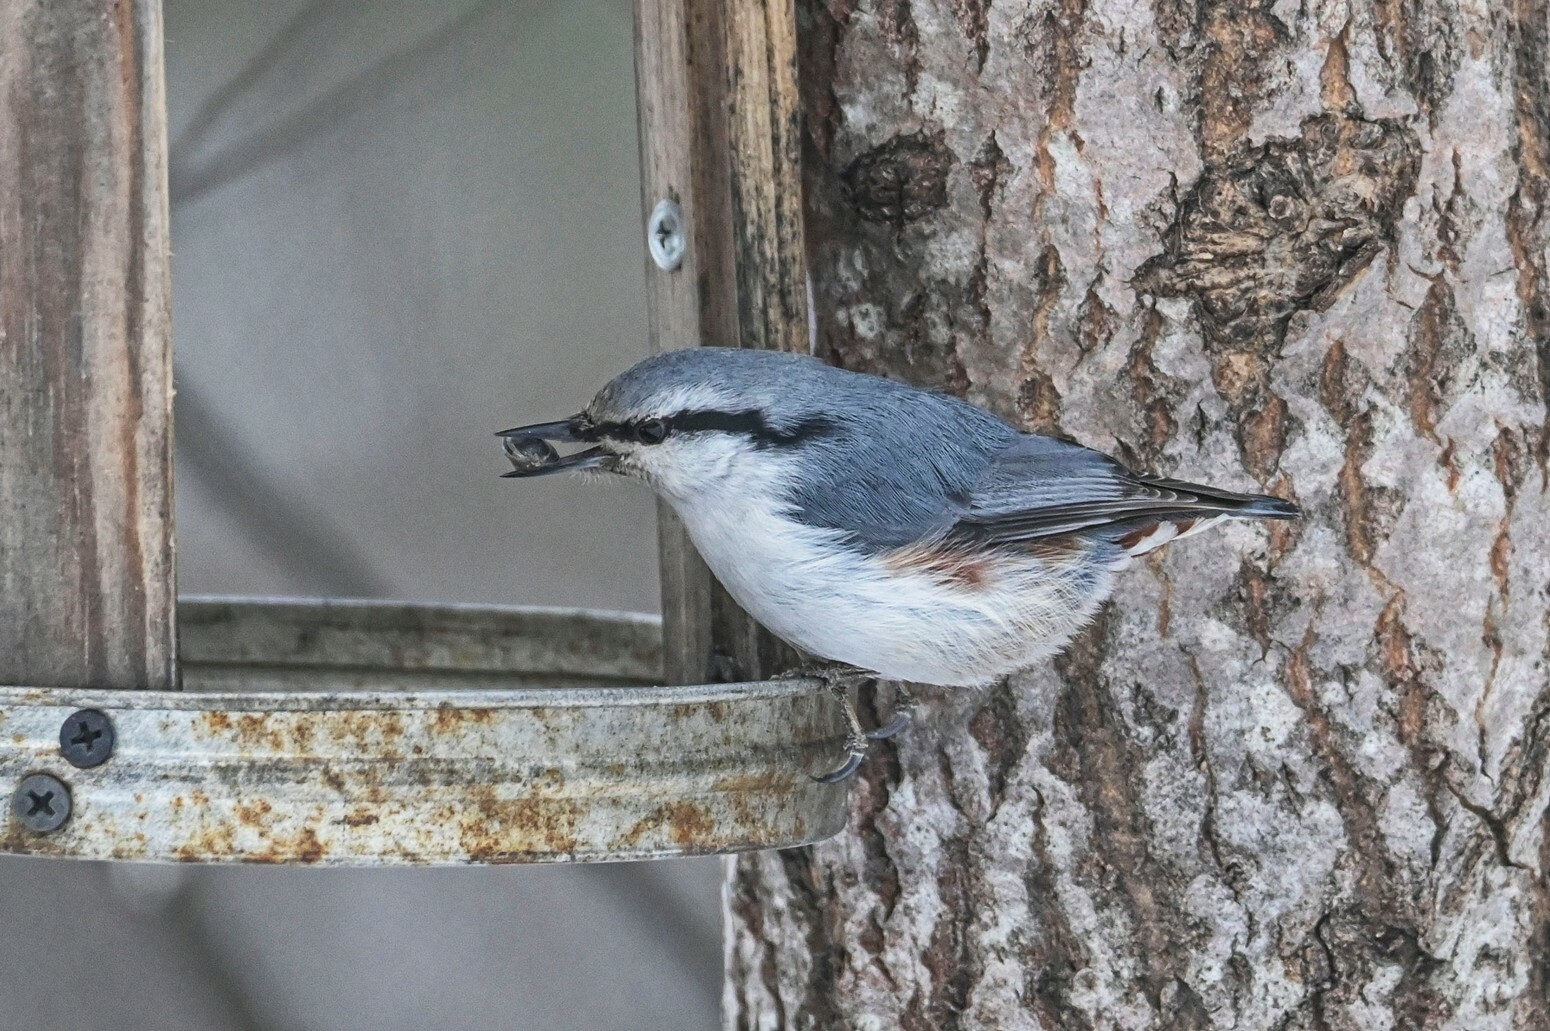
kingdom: Animalia
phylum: Chordata
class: Aves
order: Passeriformes
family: Sittidae
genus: Sitta
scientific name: Sitta europaea
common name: Eurasian nuthatch
